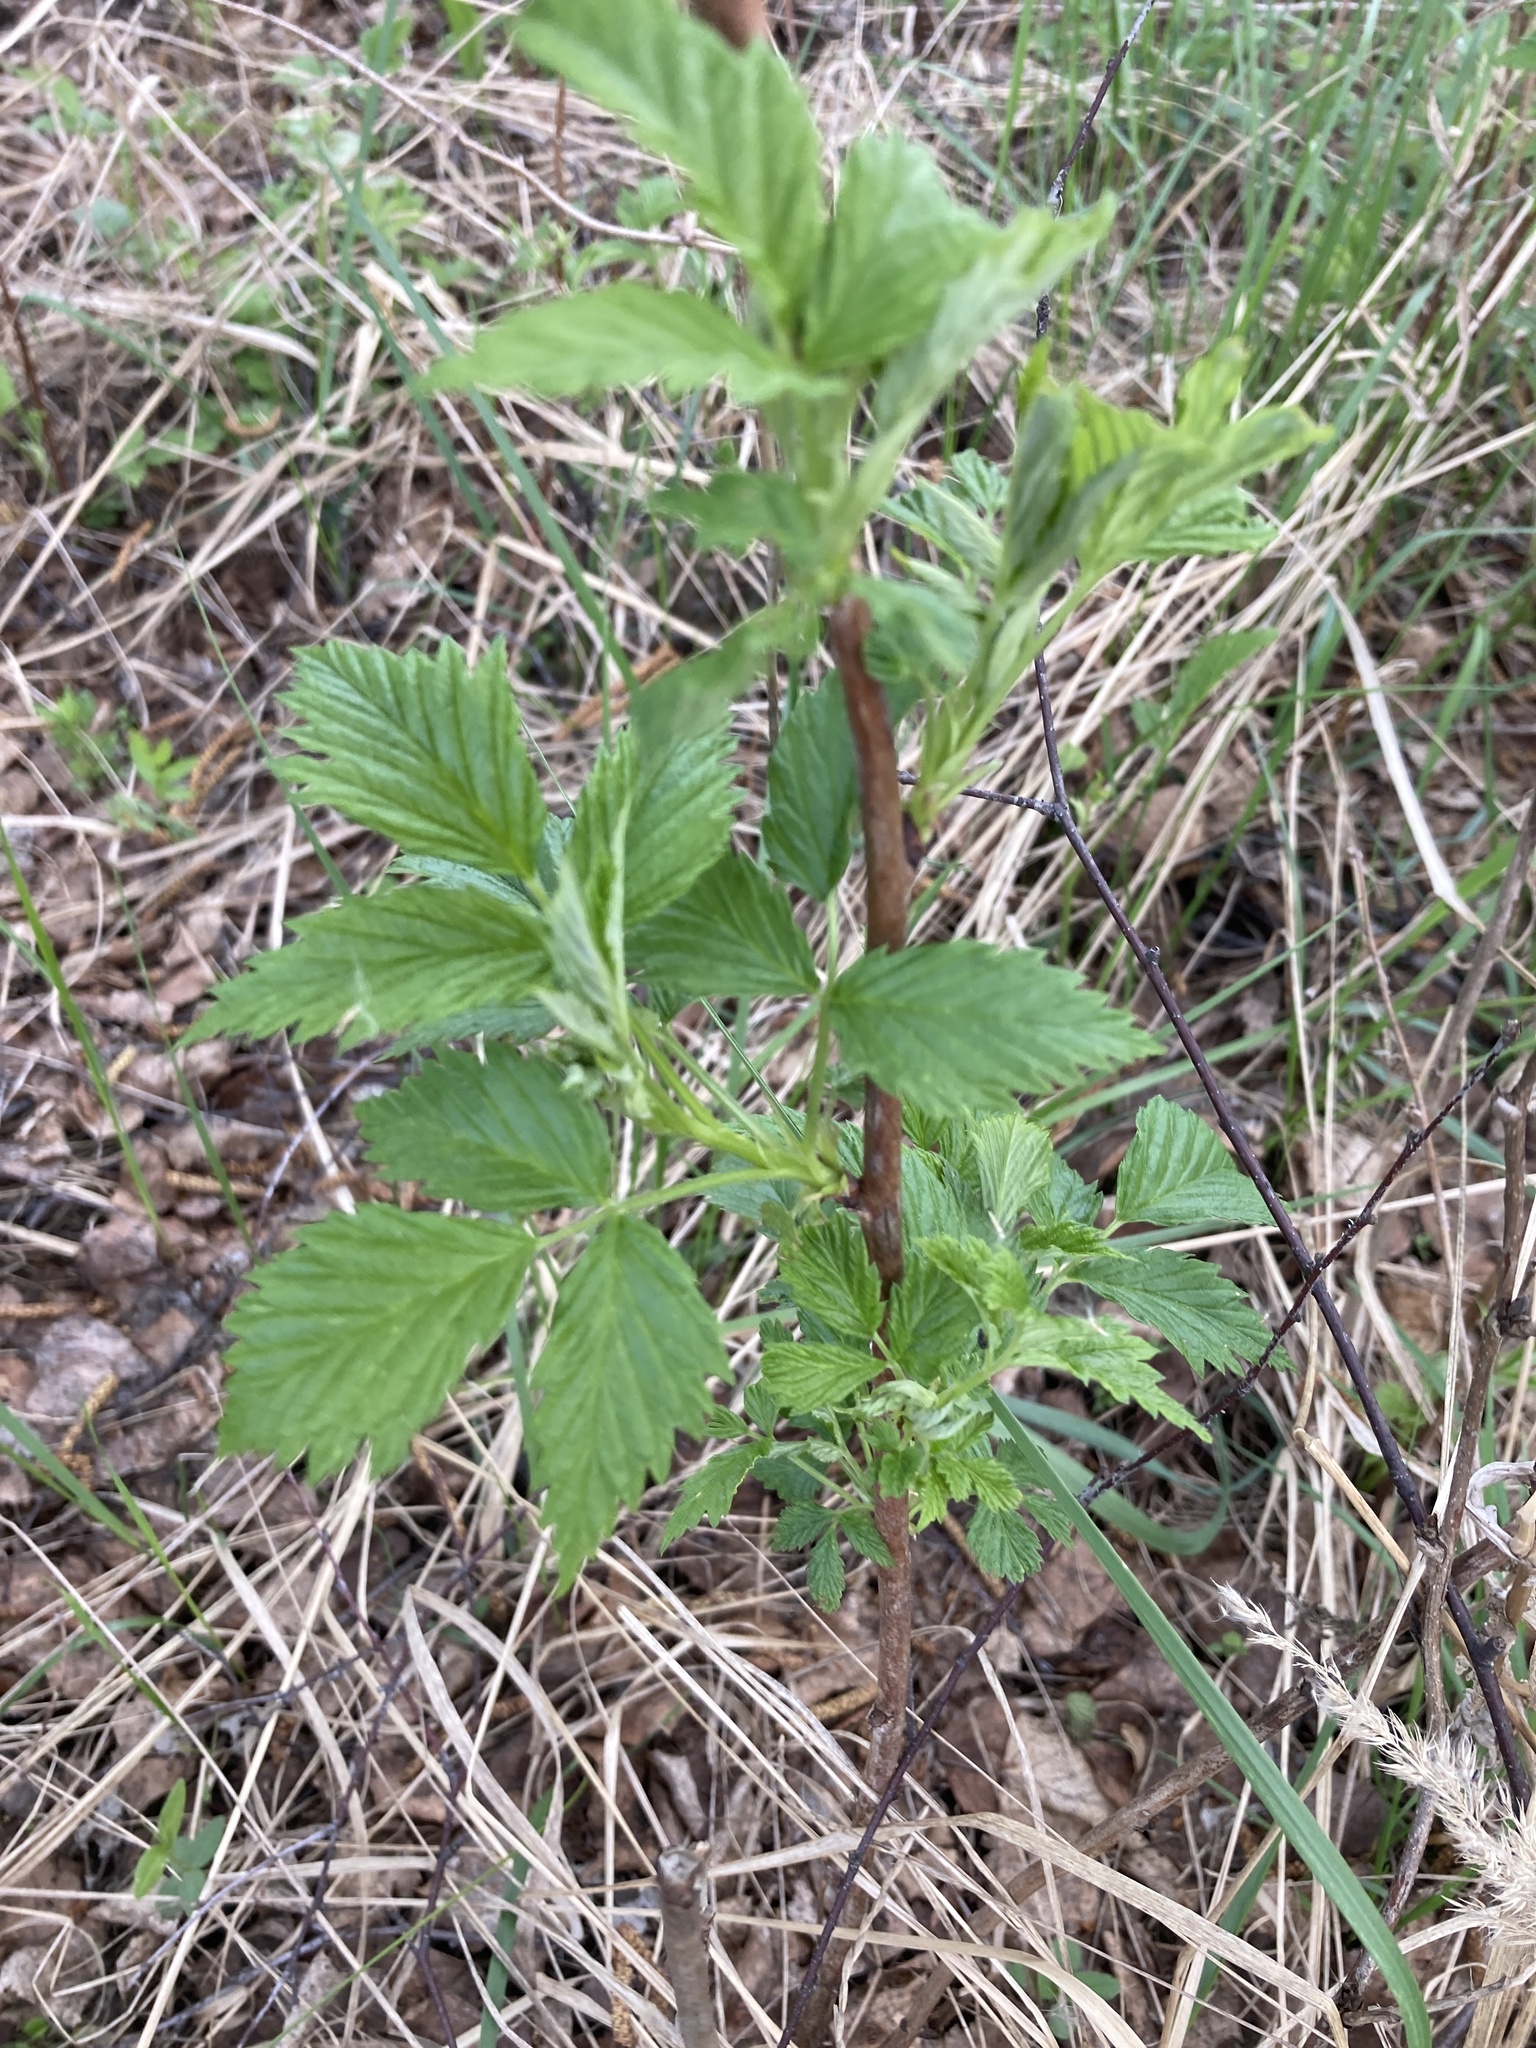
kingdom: Plantae
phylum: Tracheophyta
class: Magnoliopsida
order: Rosales
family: Rosaceae
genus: Rubus
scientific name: Rubus idaeus
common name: Raspberry
